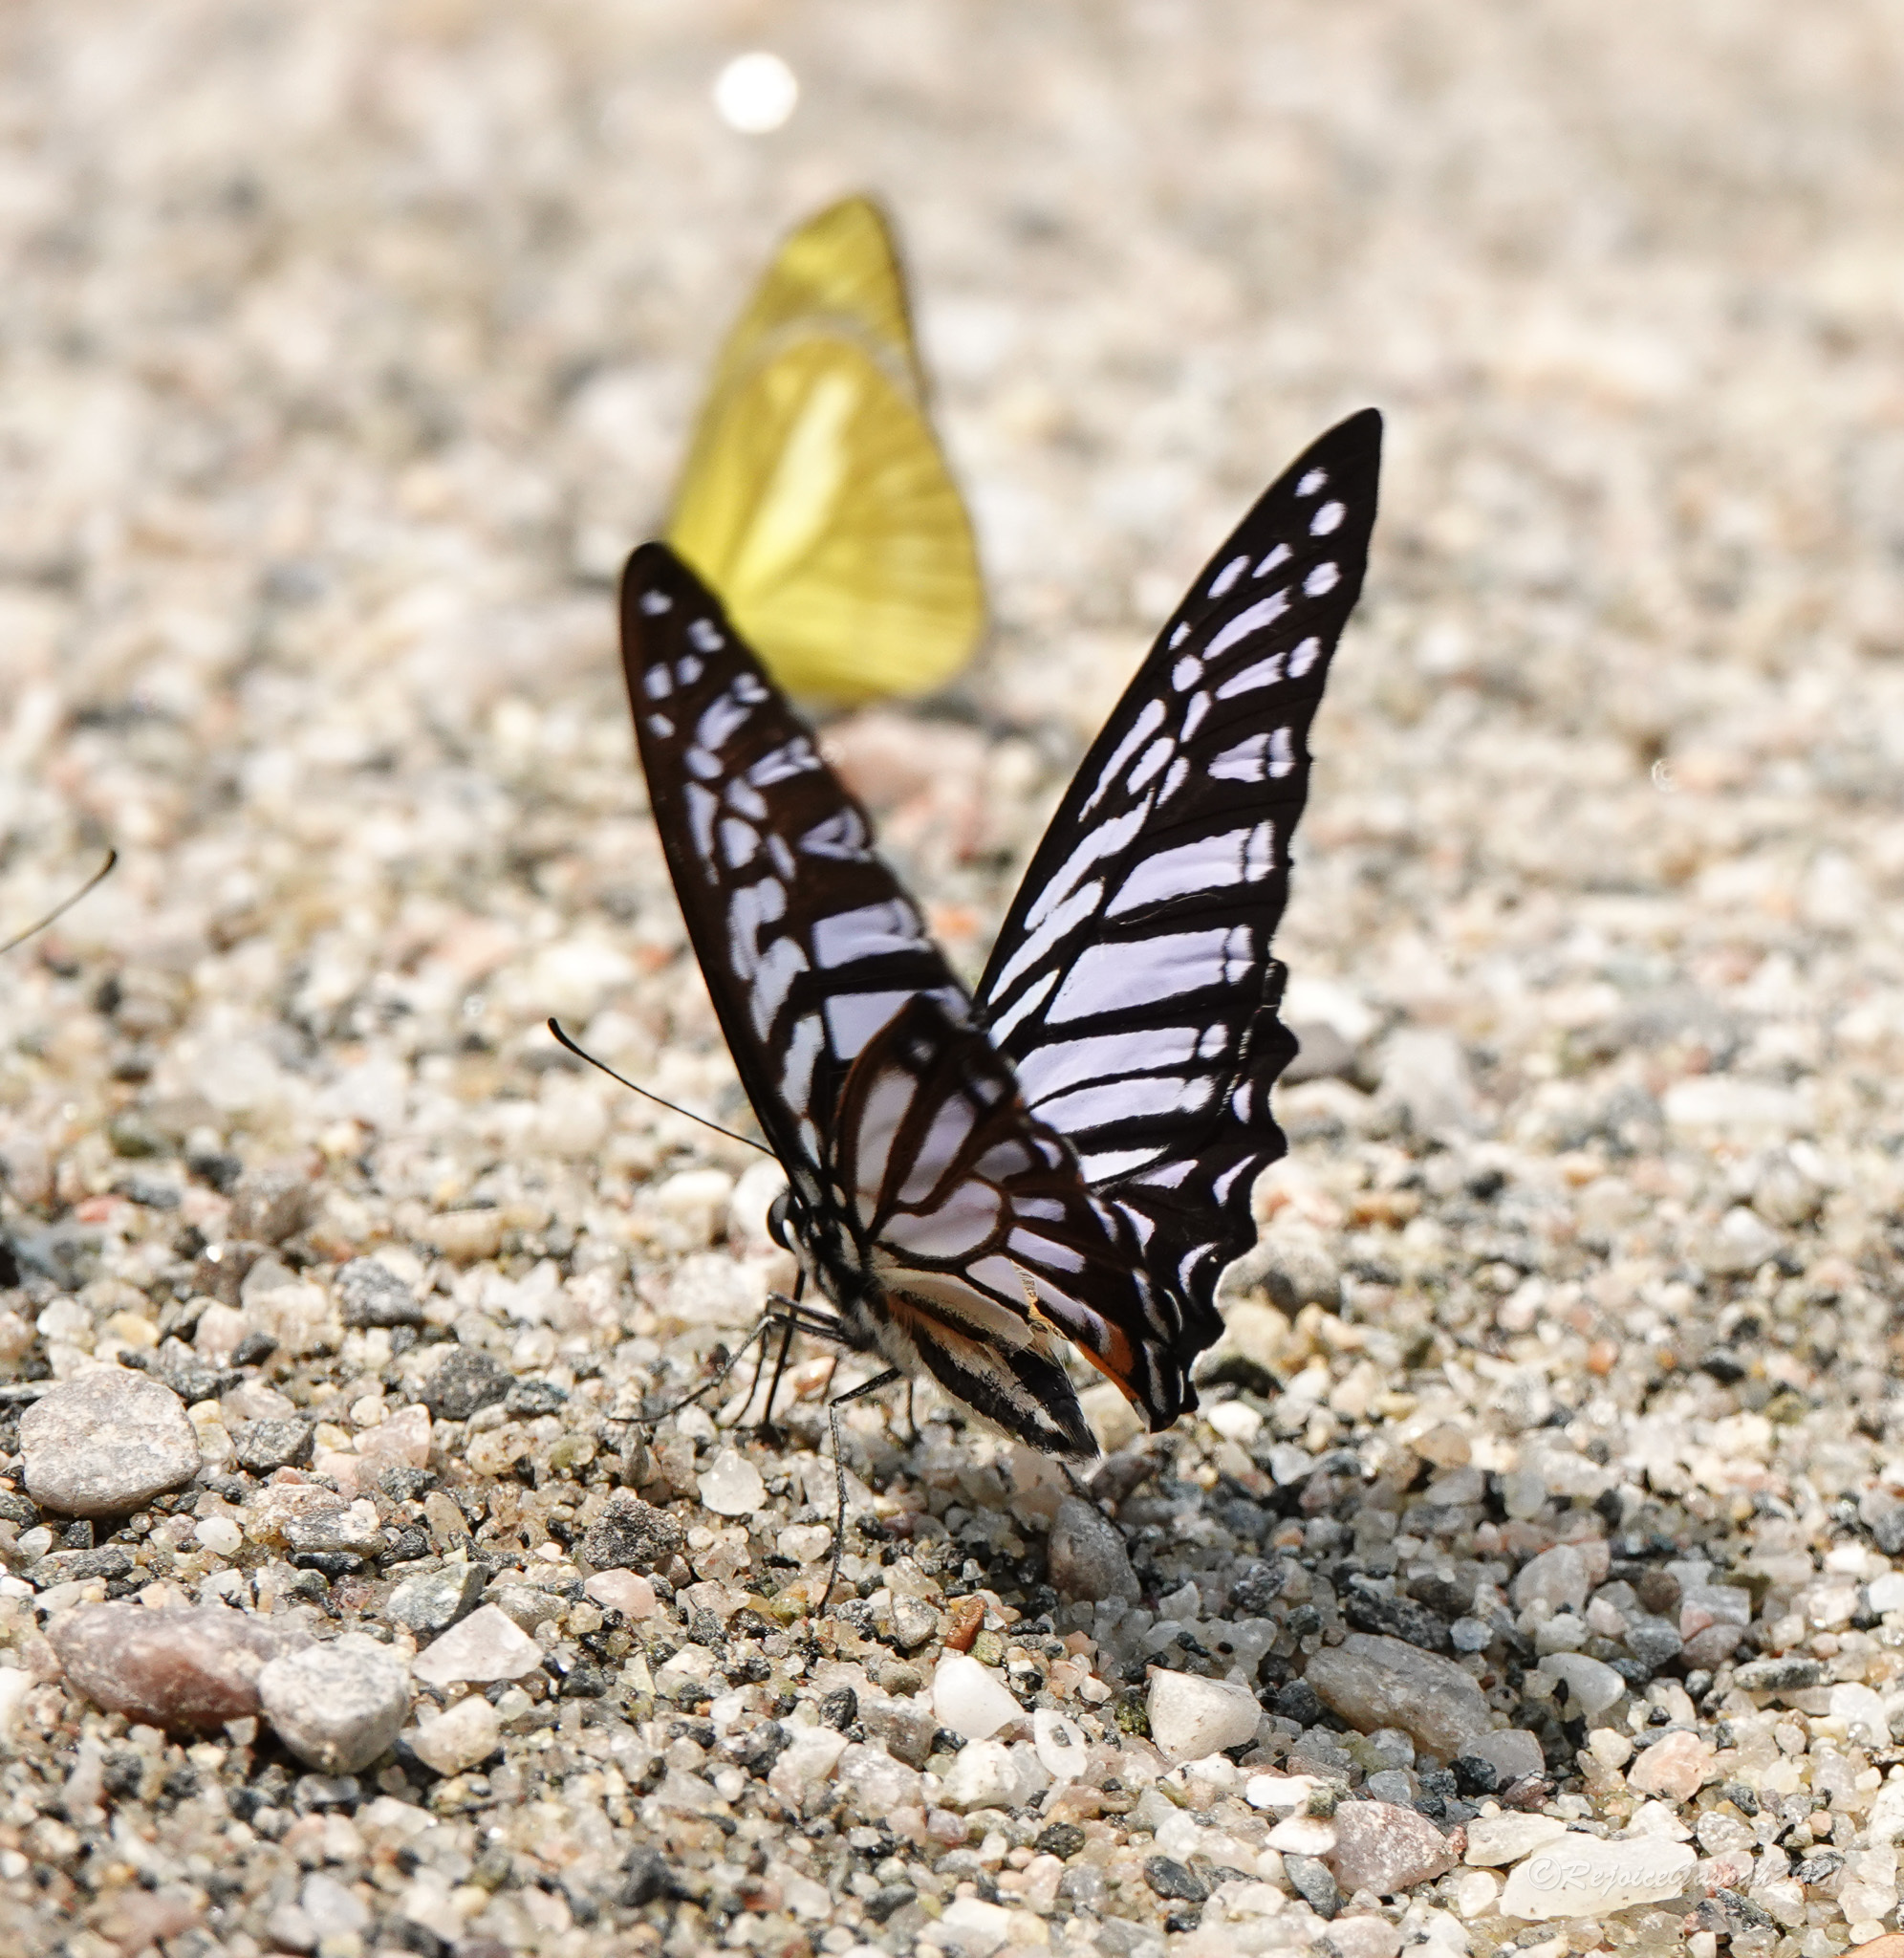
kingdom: Animalia
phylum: Arthropoda
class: Insecta
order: Lepidoptera
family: Papilionidae
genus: Graphium
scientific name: Graphium xenocles
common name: Great zebra
